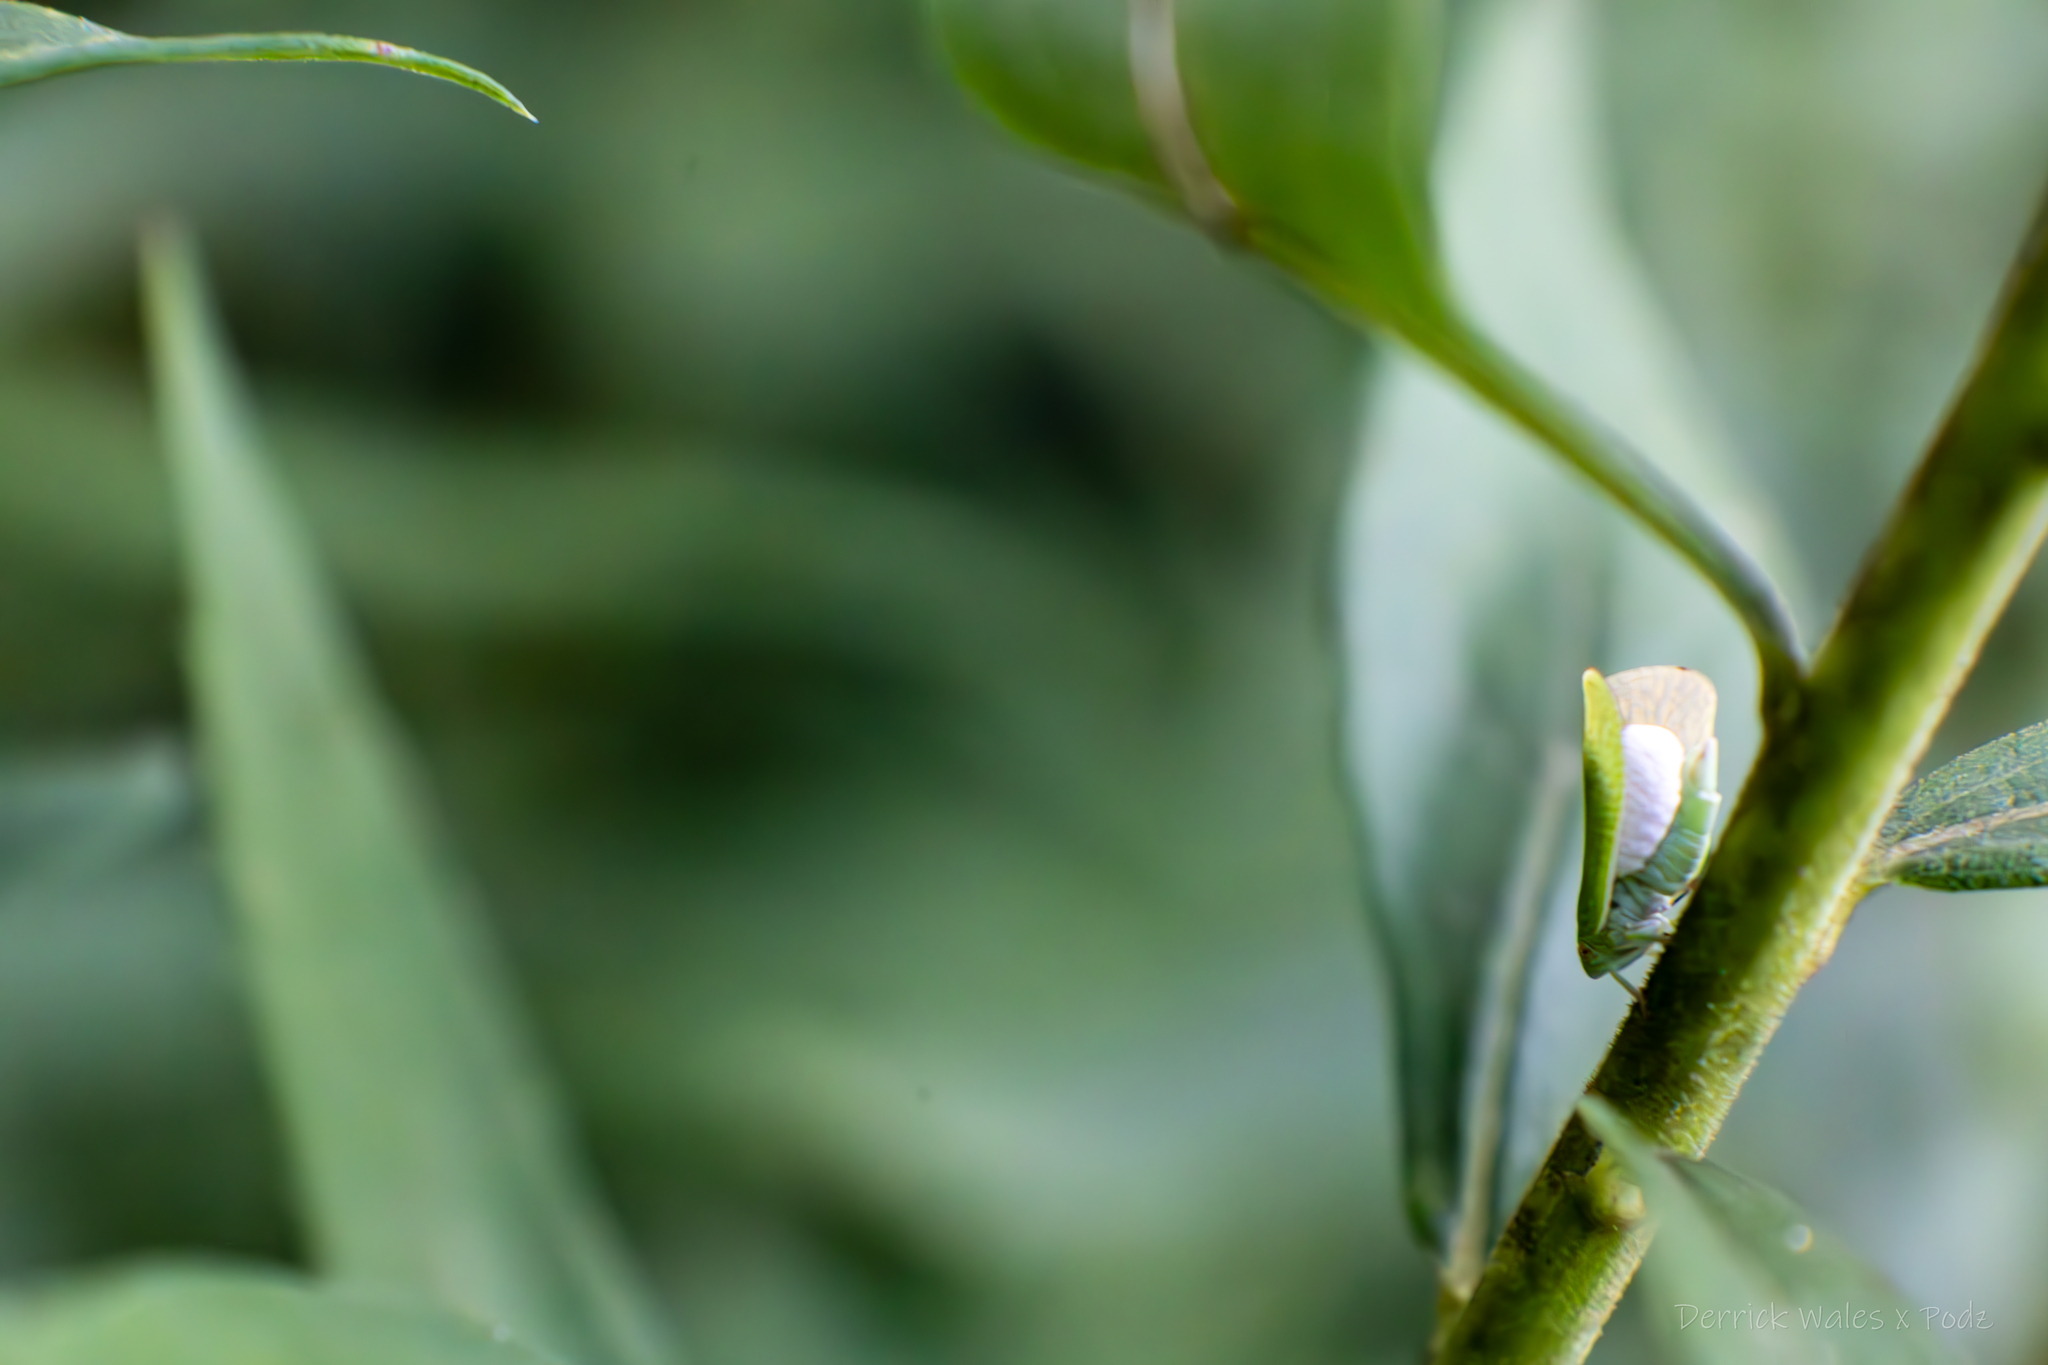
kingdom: Animalia
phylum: Arthropoda
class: Insecta
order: Lepidoptera
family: Epipyropidae
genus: Fulgoraecia
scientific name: Fulgoraecia exigua
